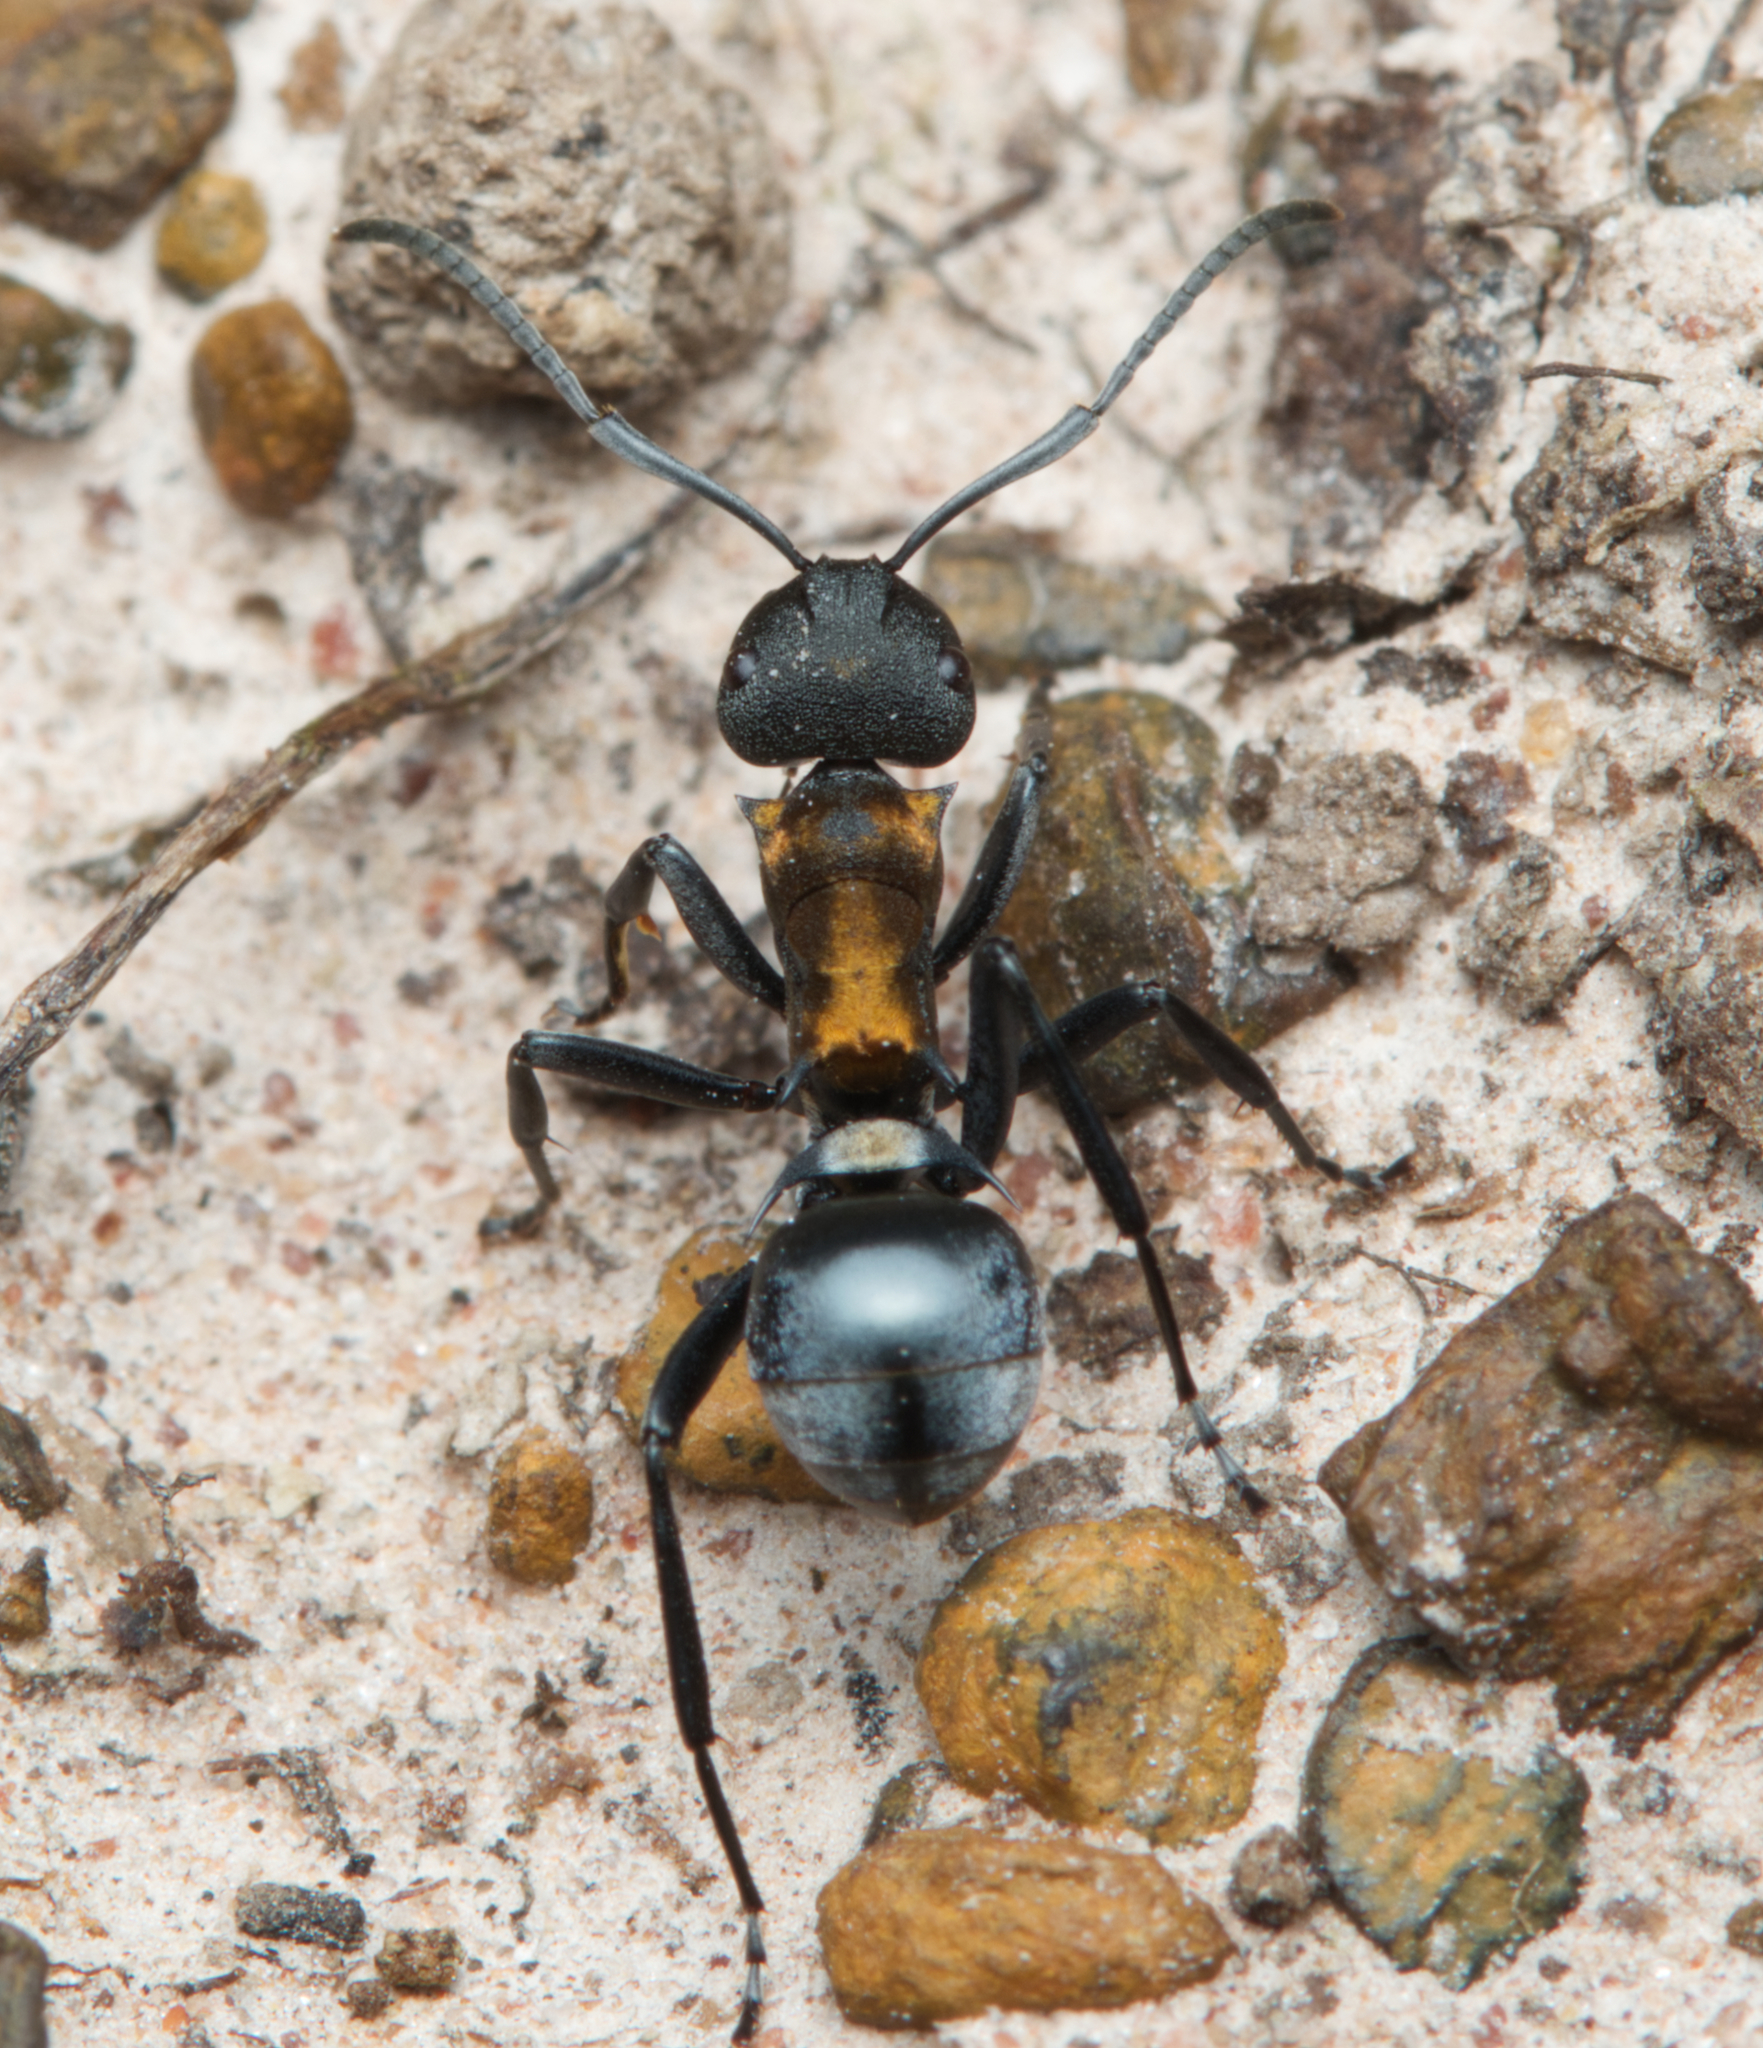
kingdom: Animalia
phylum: Arthropoda
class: Insecta
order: Hymenoptera
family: Formicidae
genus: Polyrhachis
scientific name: Polyrhachis ornata
